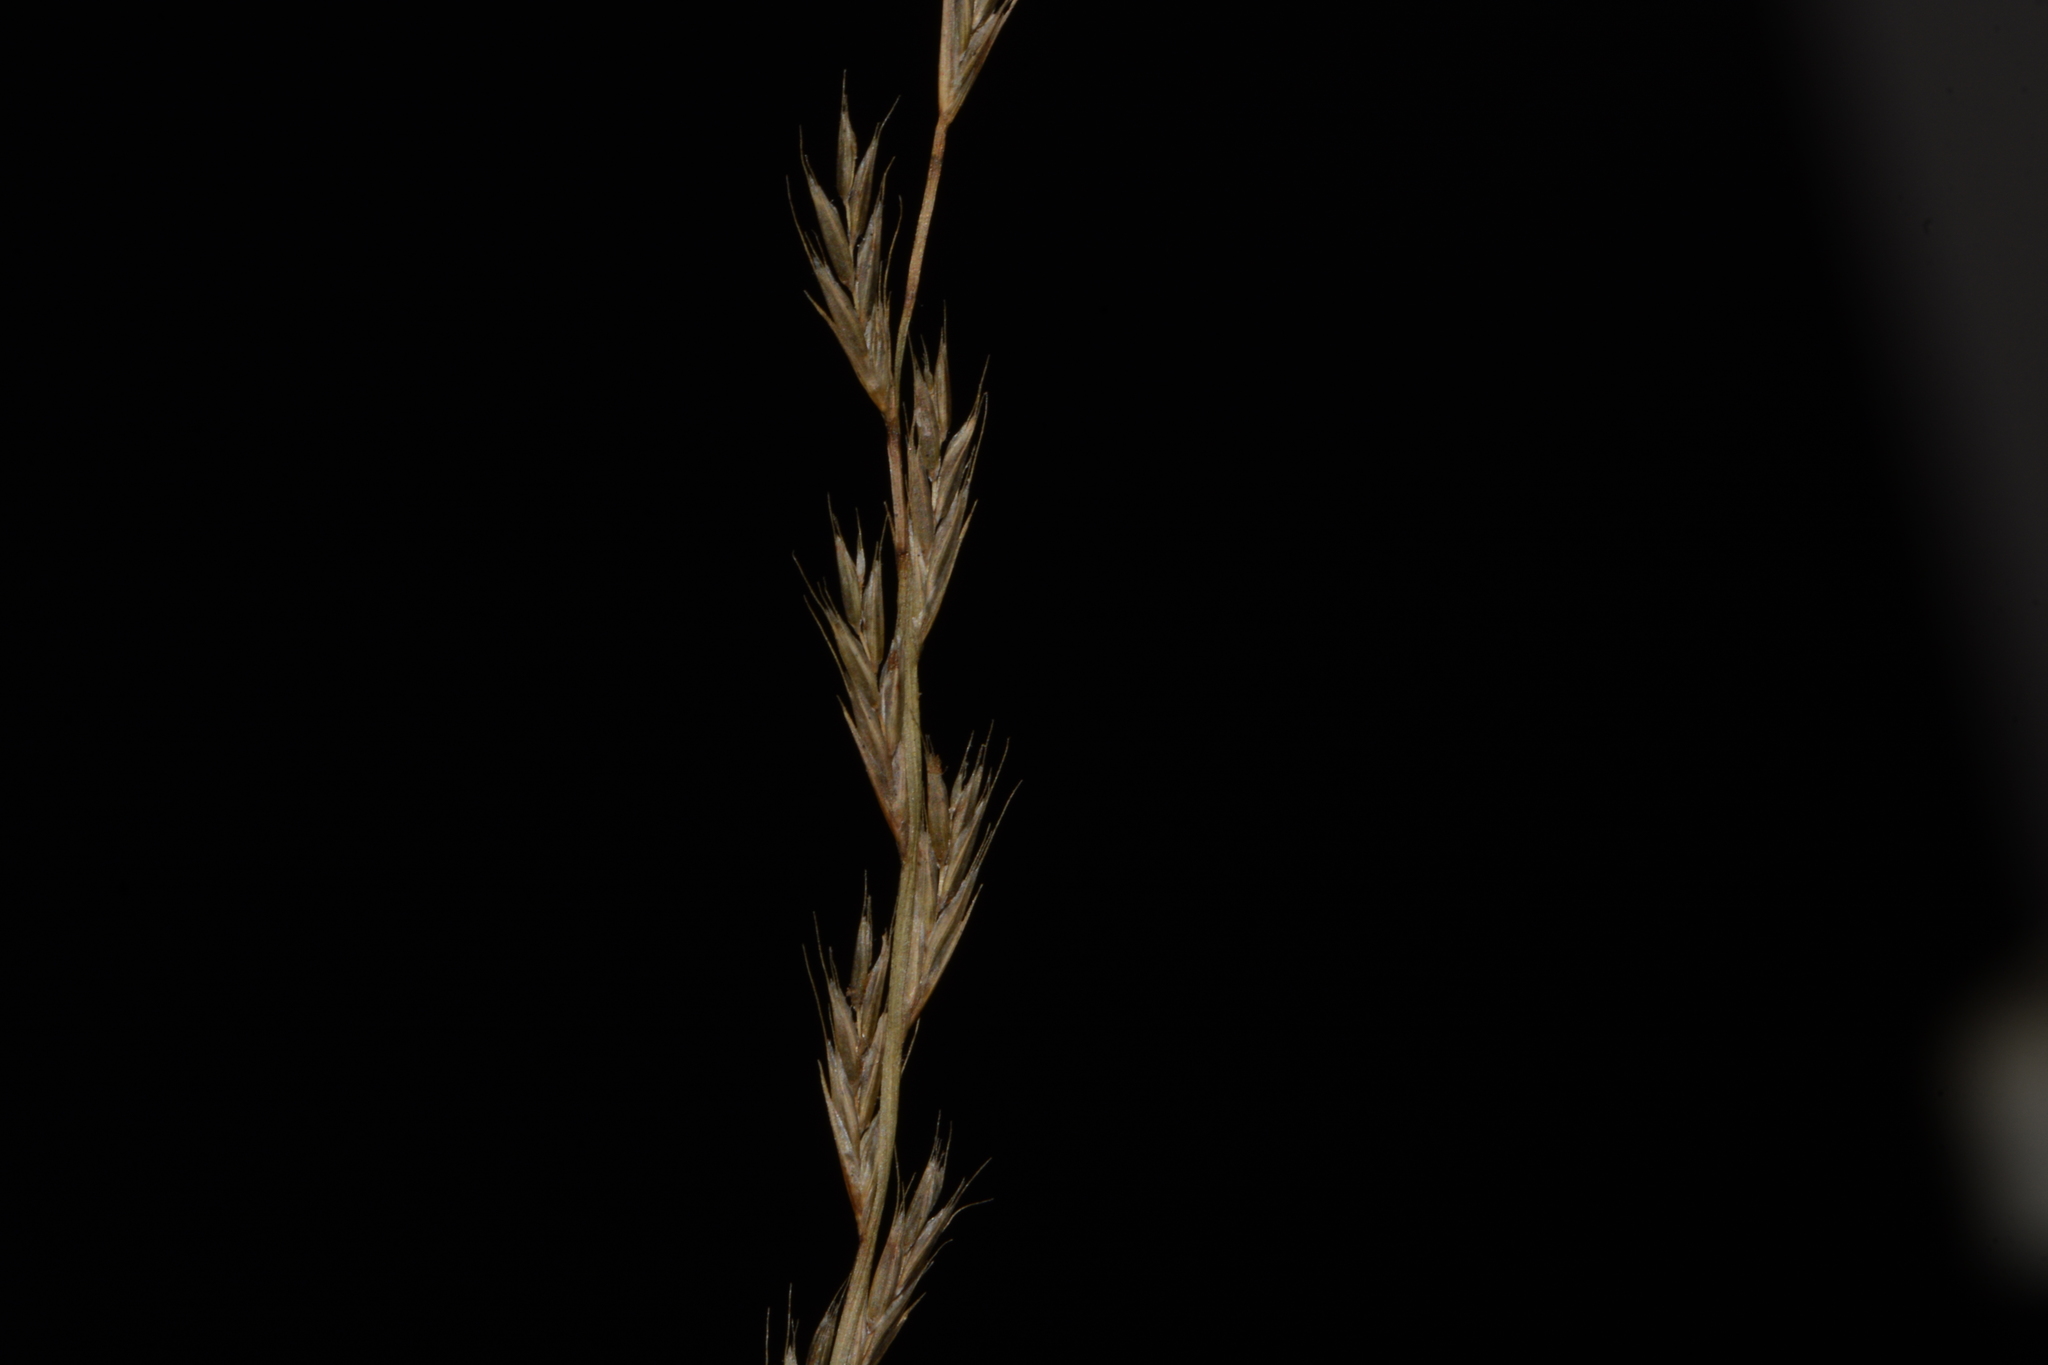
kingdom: Plantae
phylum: Tracheophyta
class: Liliopsida
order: Poales
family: Poaceae
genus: Tripogon
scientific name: Tripogon jacquemontii
